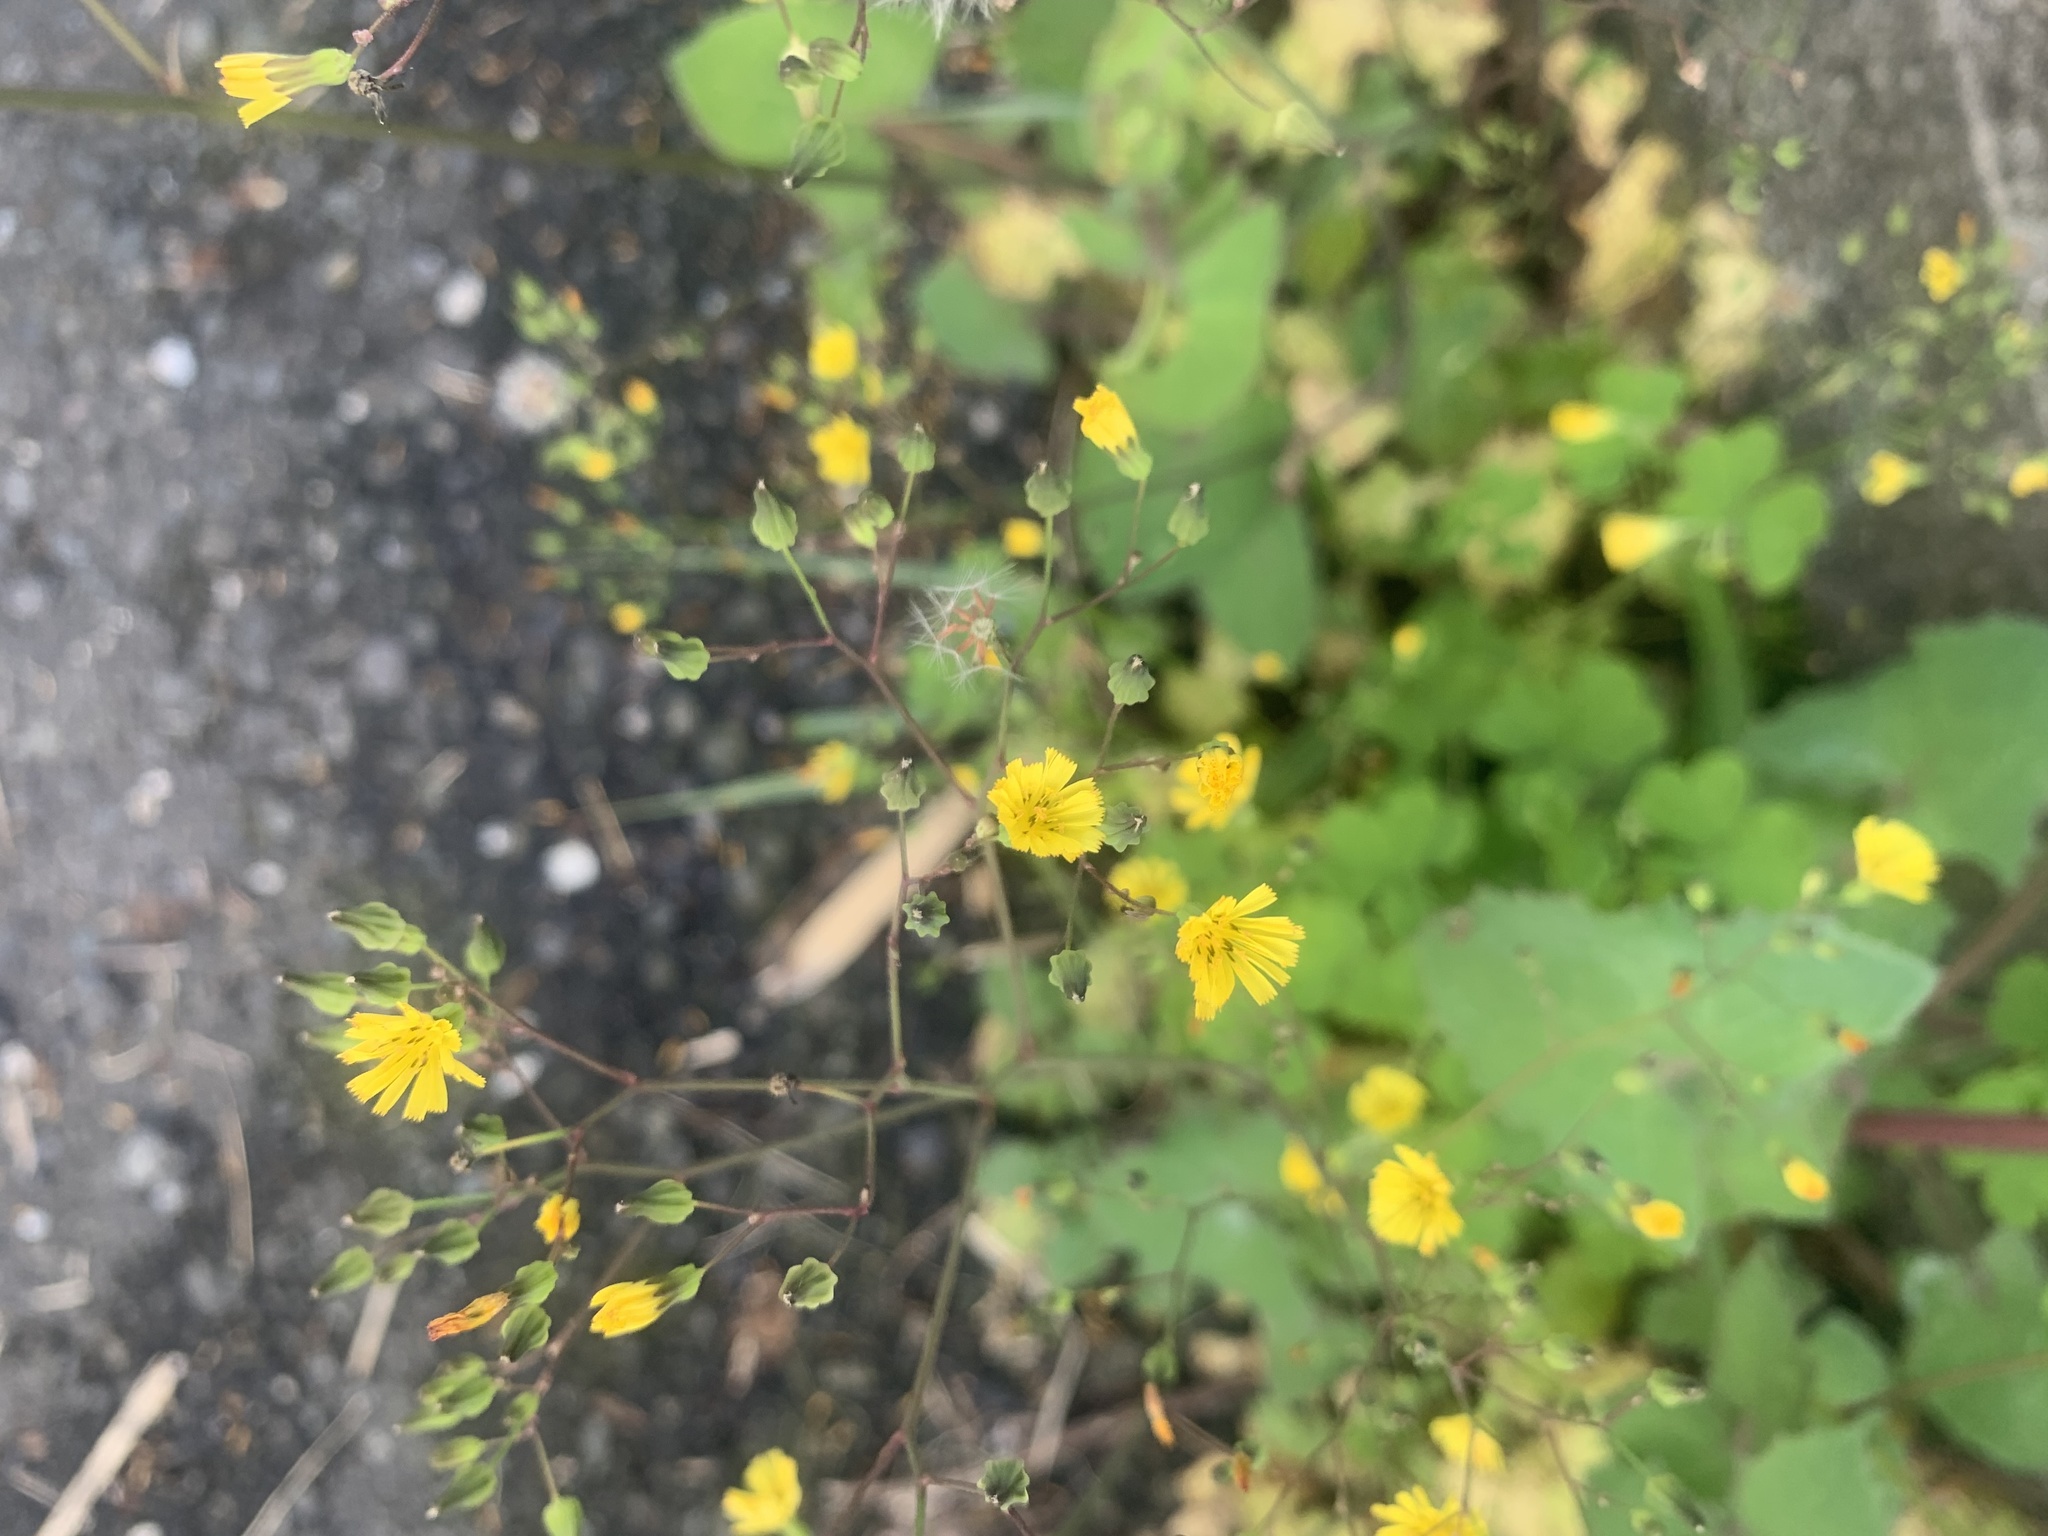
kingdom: Plantae
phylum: Tracheophyta
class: Magnoliopsida
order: Asterales
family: Asteraceae
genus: Youngia
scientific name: Youngia japonica
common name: Oriental false hawksbeard
